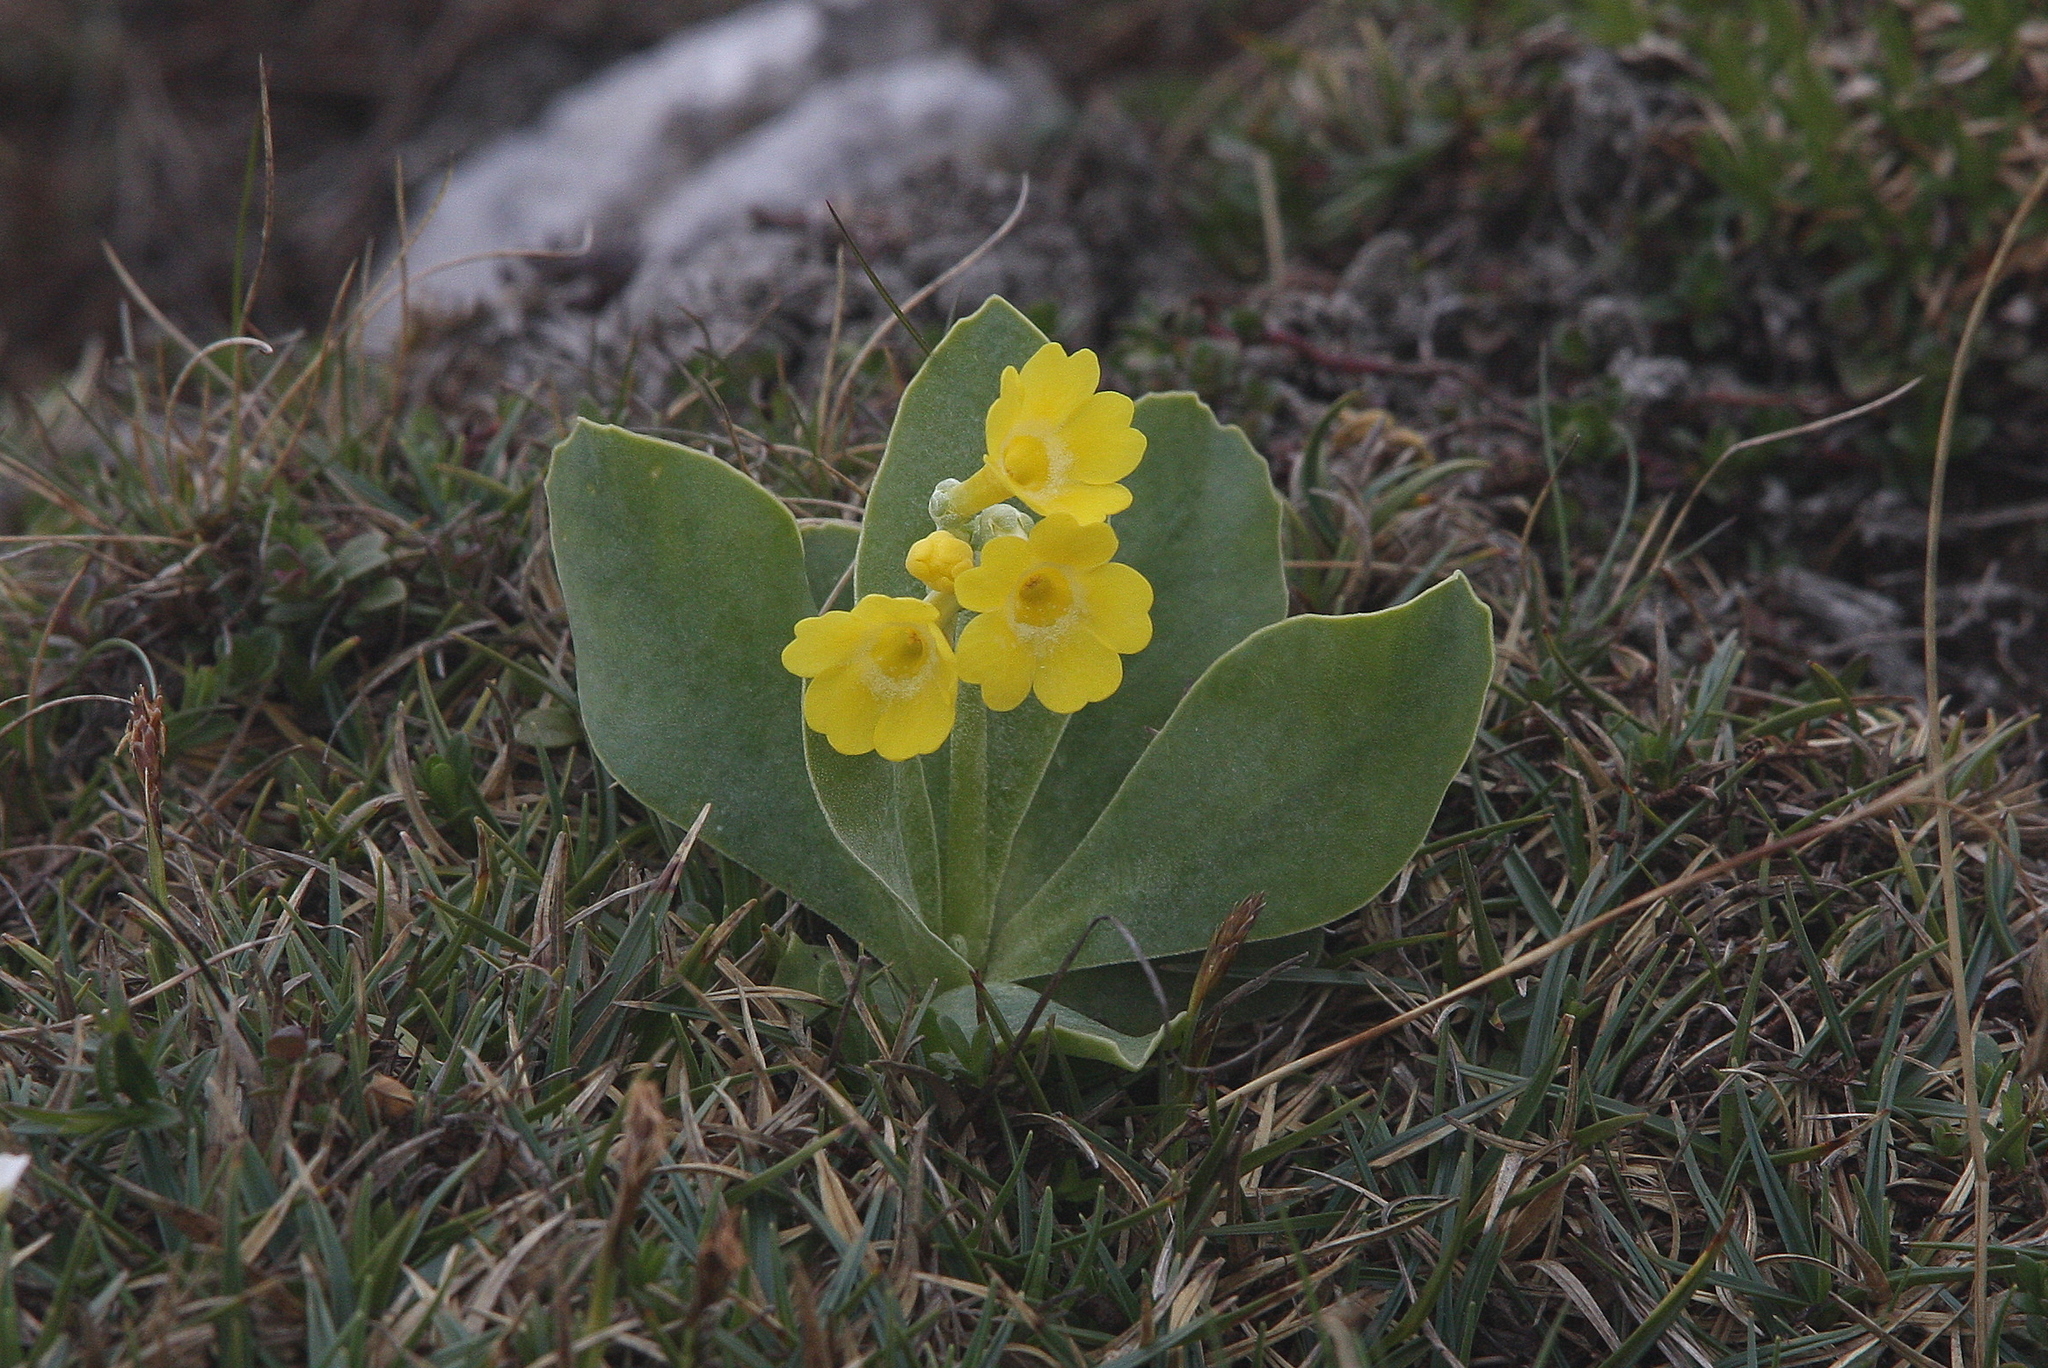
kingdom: Plantae
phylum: Tracheophyta
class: Magnoliopsida
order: Ericales
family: Primulaceae
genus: Primula
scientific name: Primula auricula
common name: Auricula
